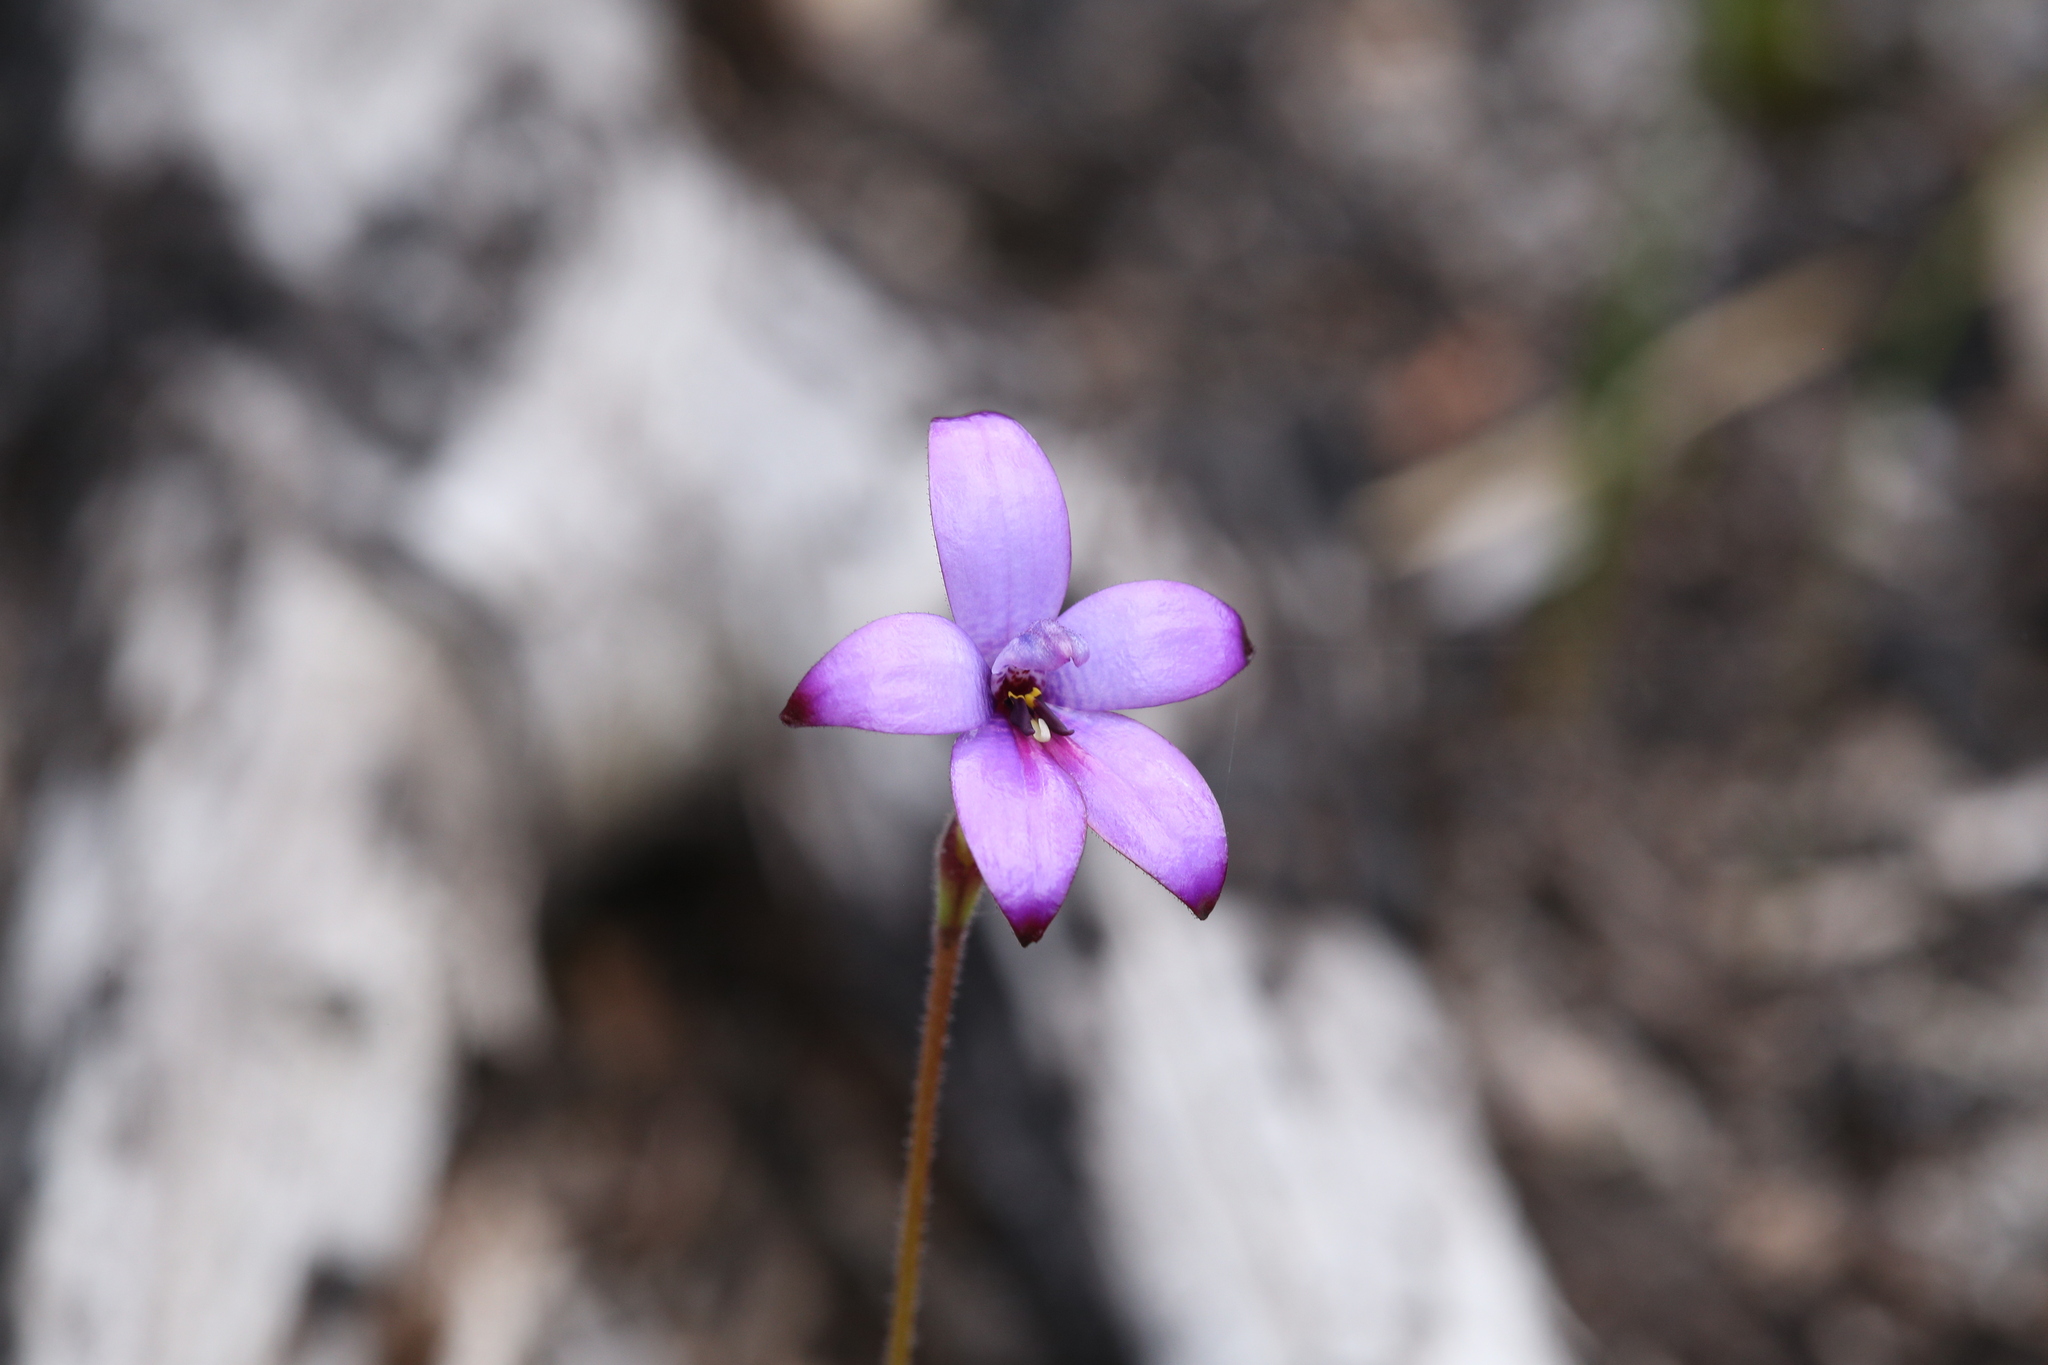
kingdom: Plantae
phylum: Tracheophyta
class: Liliopsida
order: Asparagales
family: Orchidaceae
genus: Caladenia
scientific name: Caladenia brunonis
